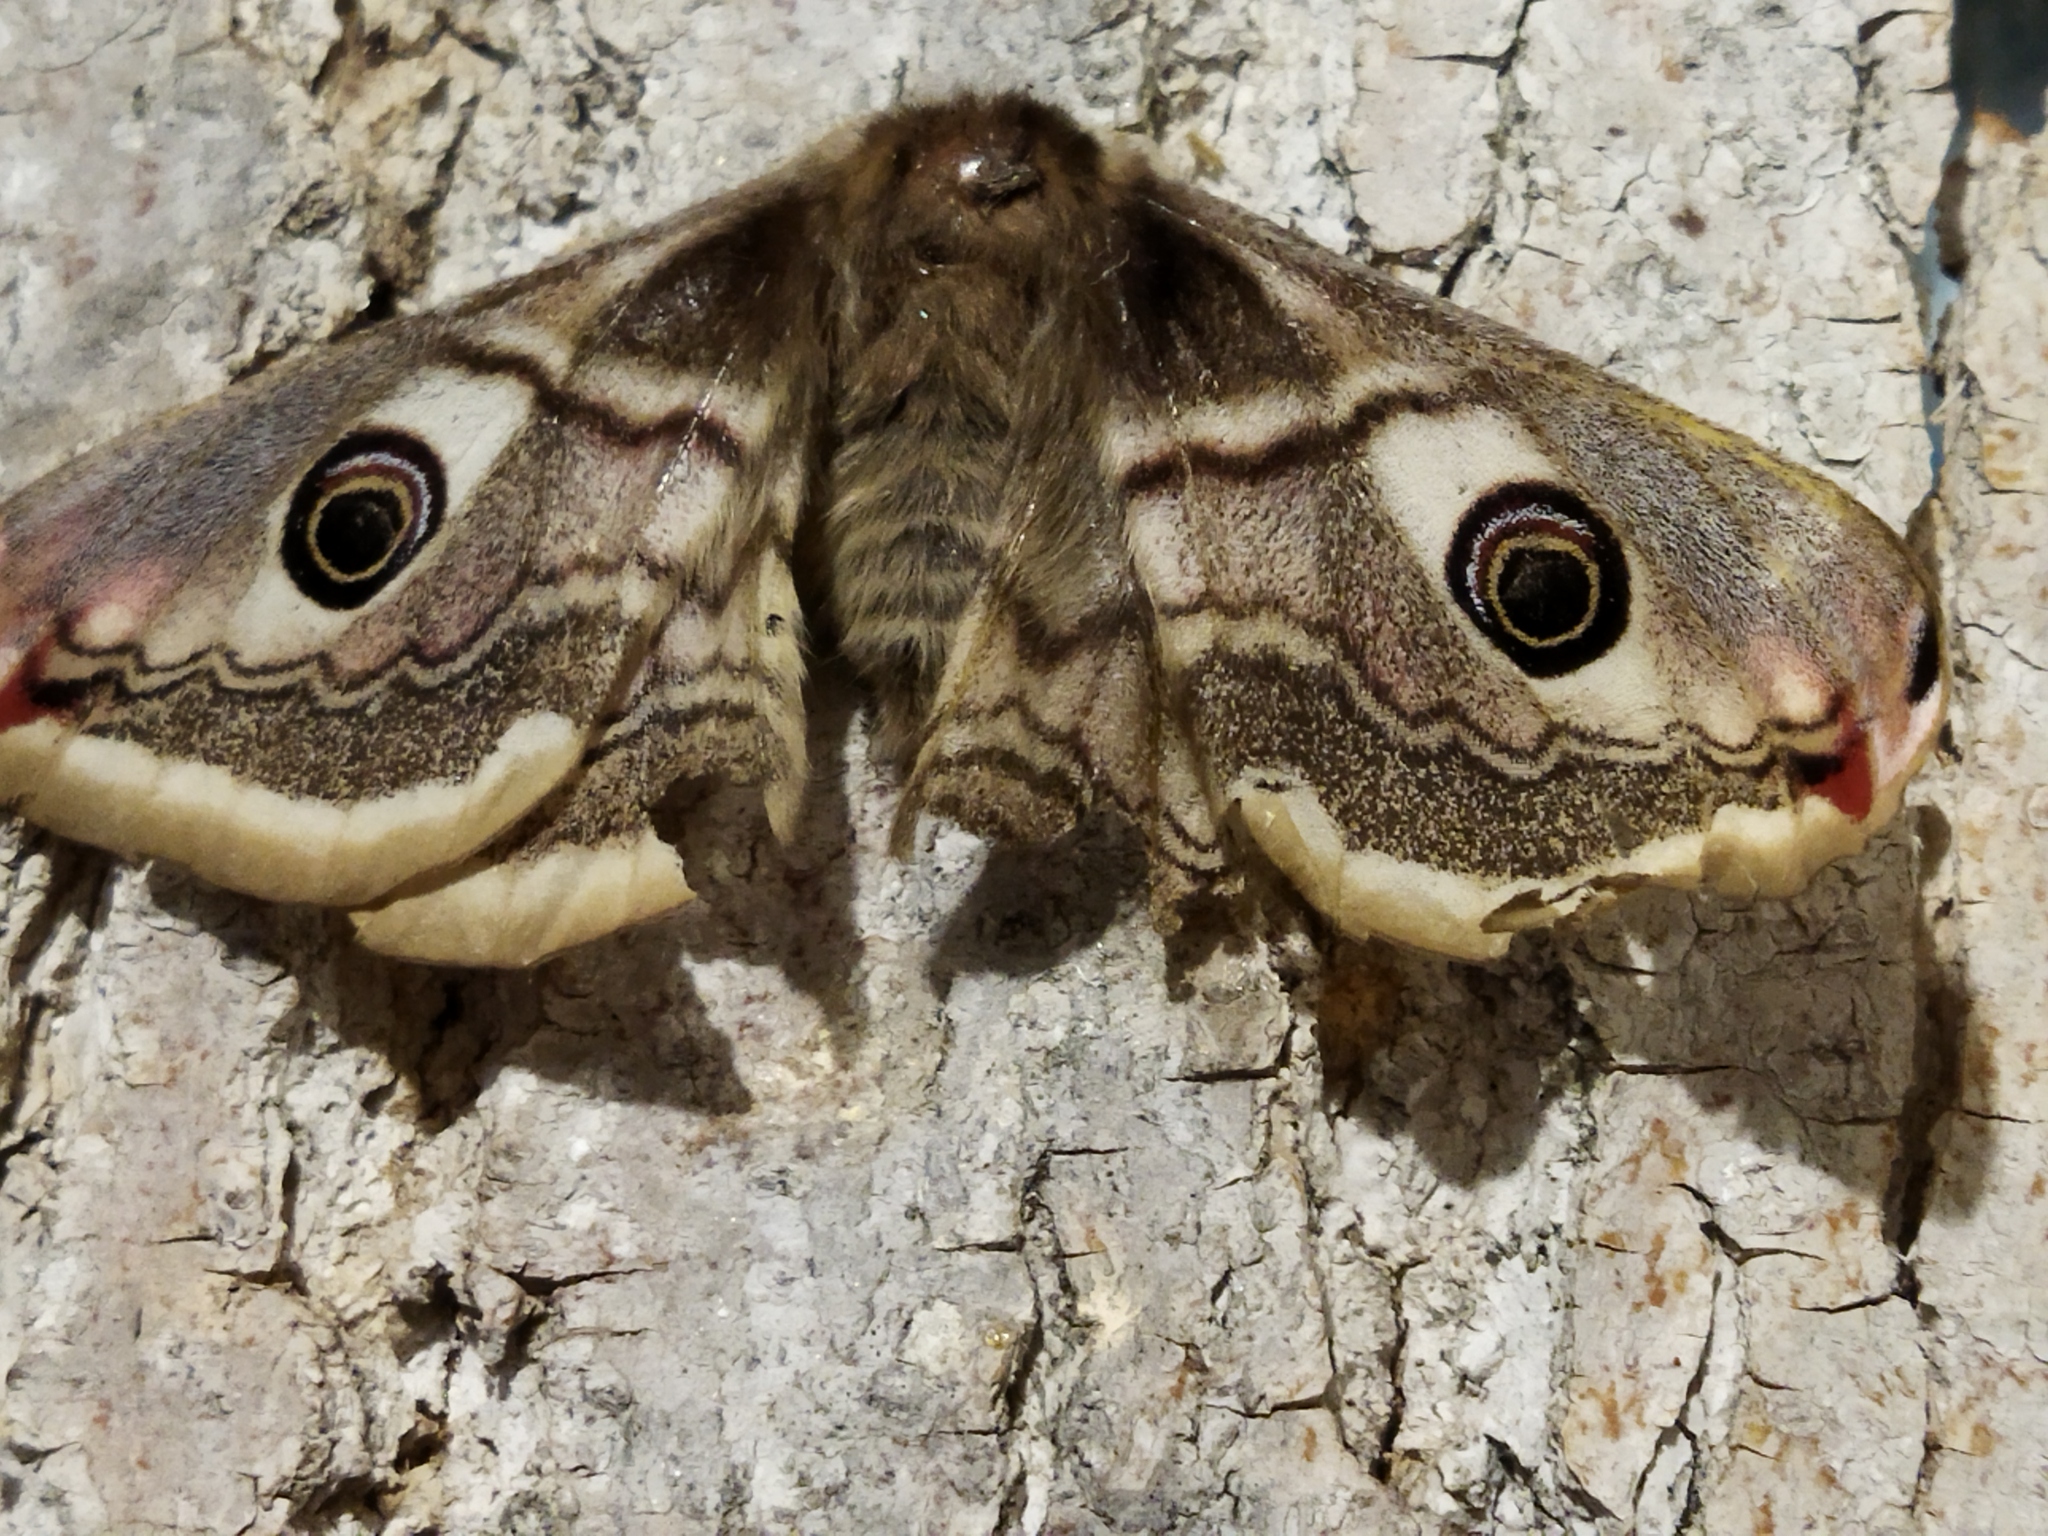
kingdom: Animalia
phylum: Arthropoda
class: Insecta
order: Lepidoptera
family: Saturniidae
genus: Saturnia
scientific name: Saturnia pavoniella
